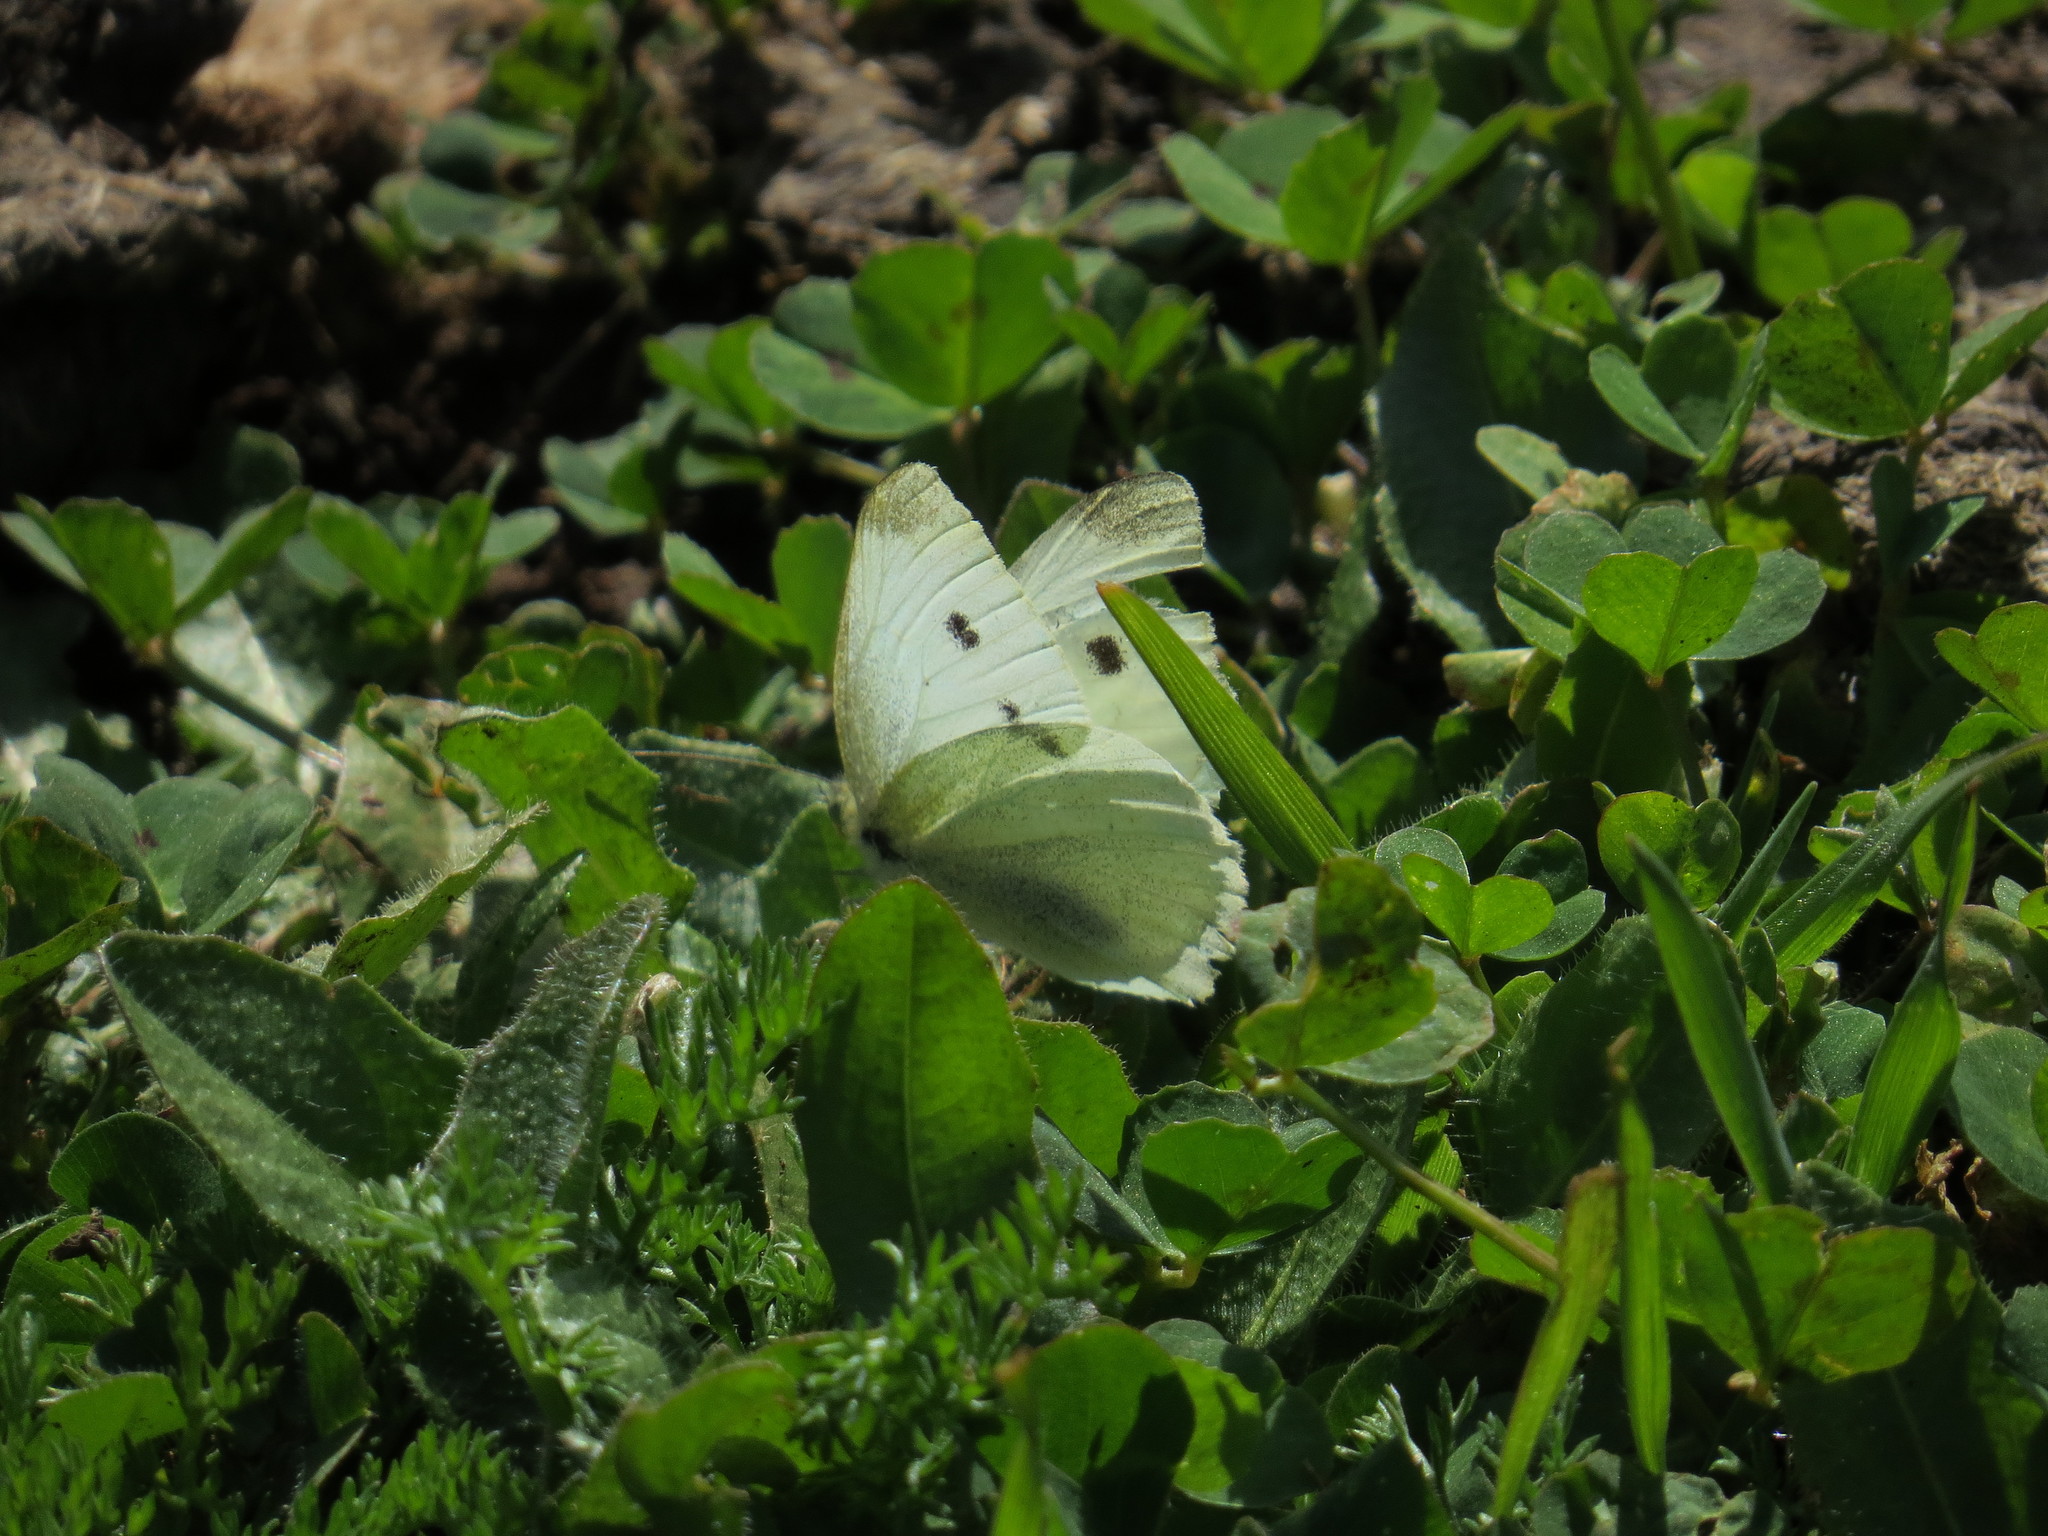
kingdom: Animalia
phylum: Arthropoda
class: Insecta
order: Lepidoptera
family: Pieridae
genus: Pieris
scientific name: Pieris rapae
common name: Small white
